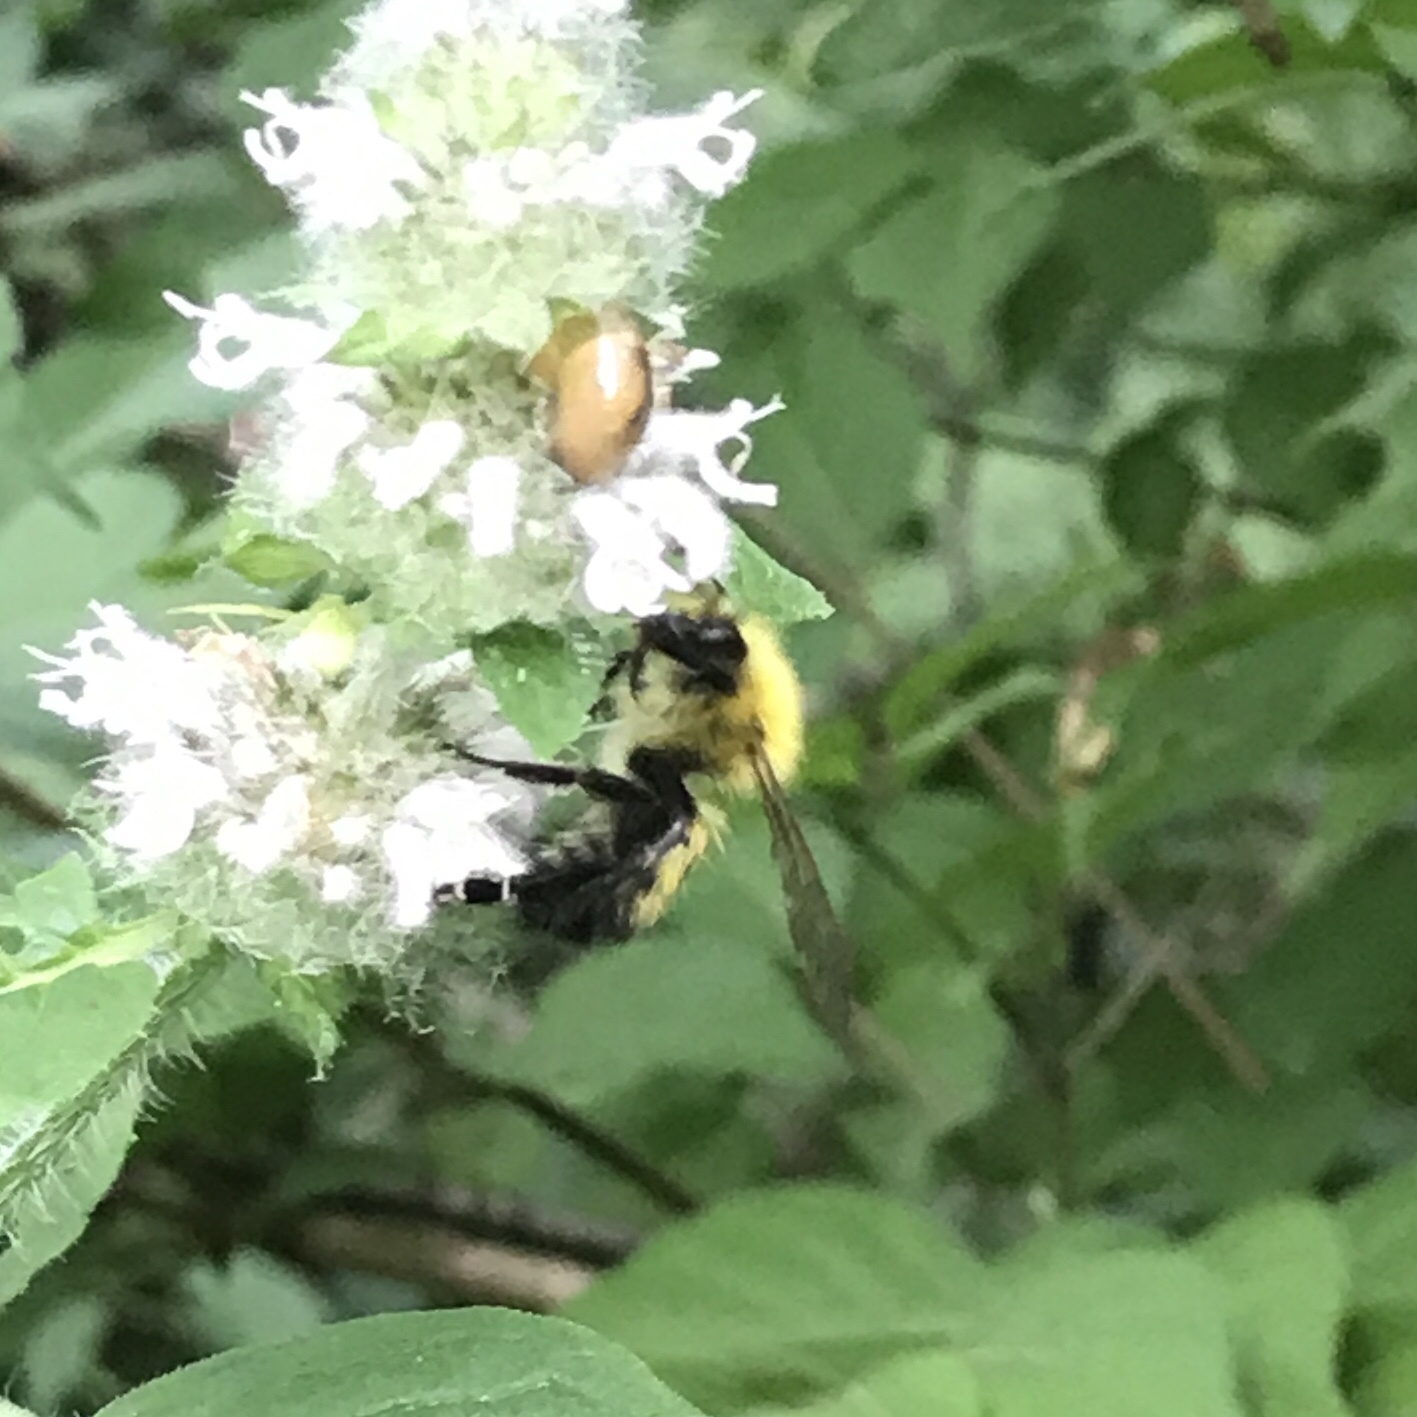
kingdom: Animalia
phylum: Arthropoda
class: Insecta
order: Hymenoptera
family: Apidae
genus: Bombus
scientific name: Bombus perplexus
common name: Confusing bumble bee
